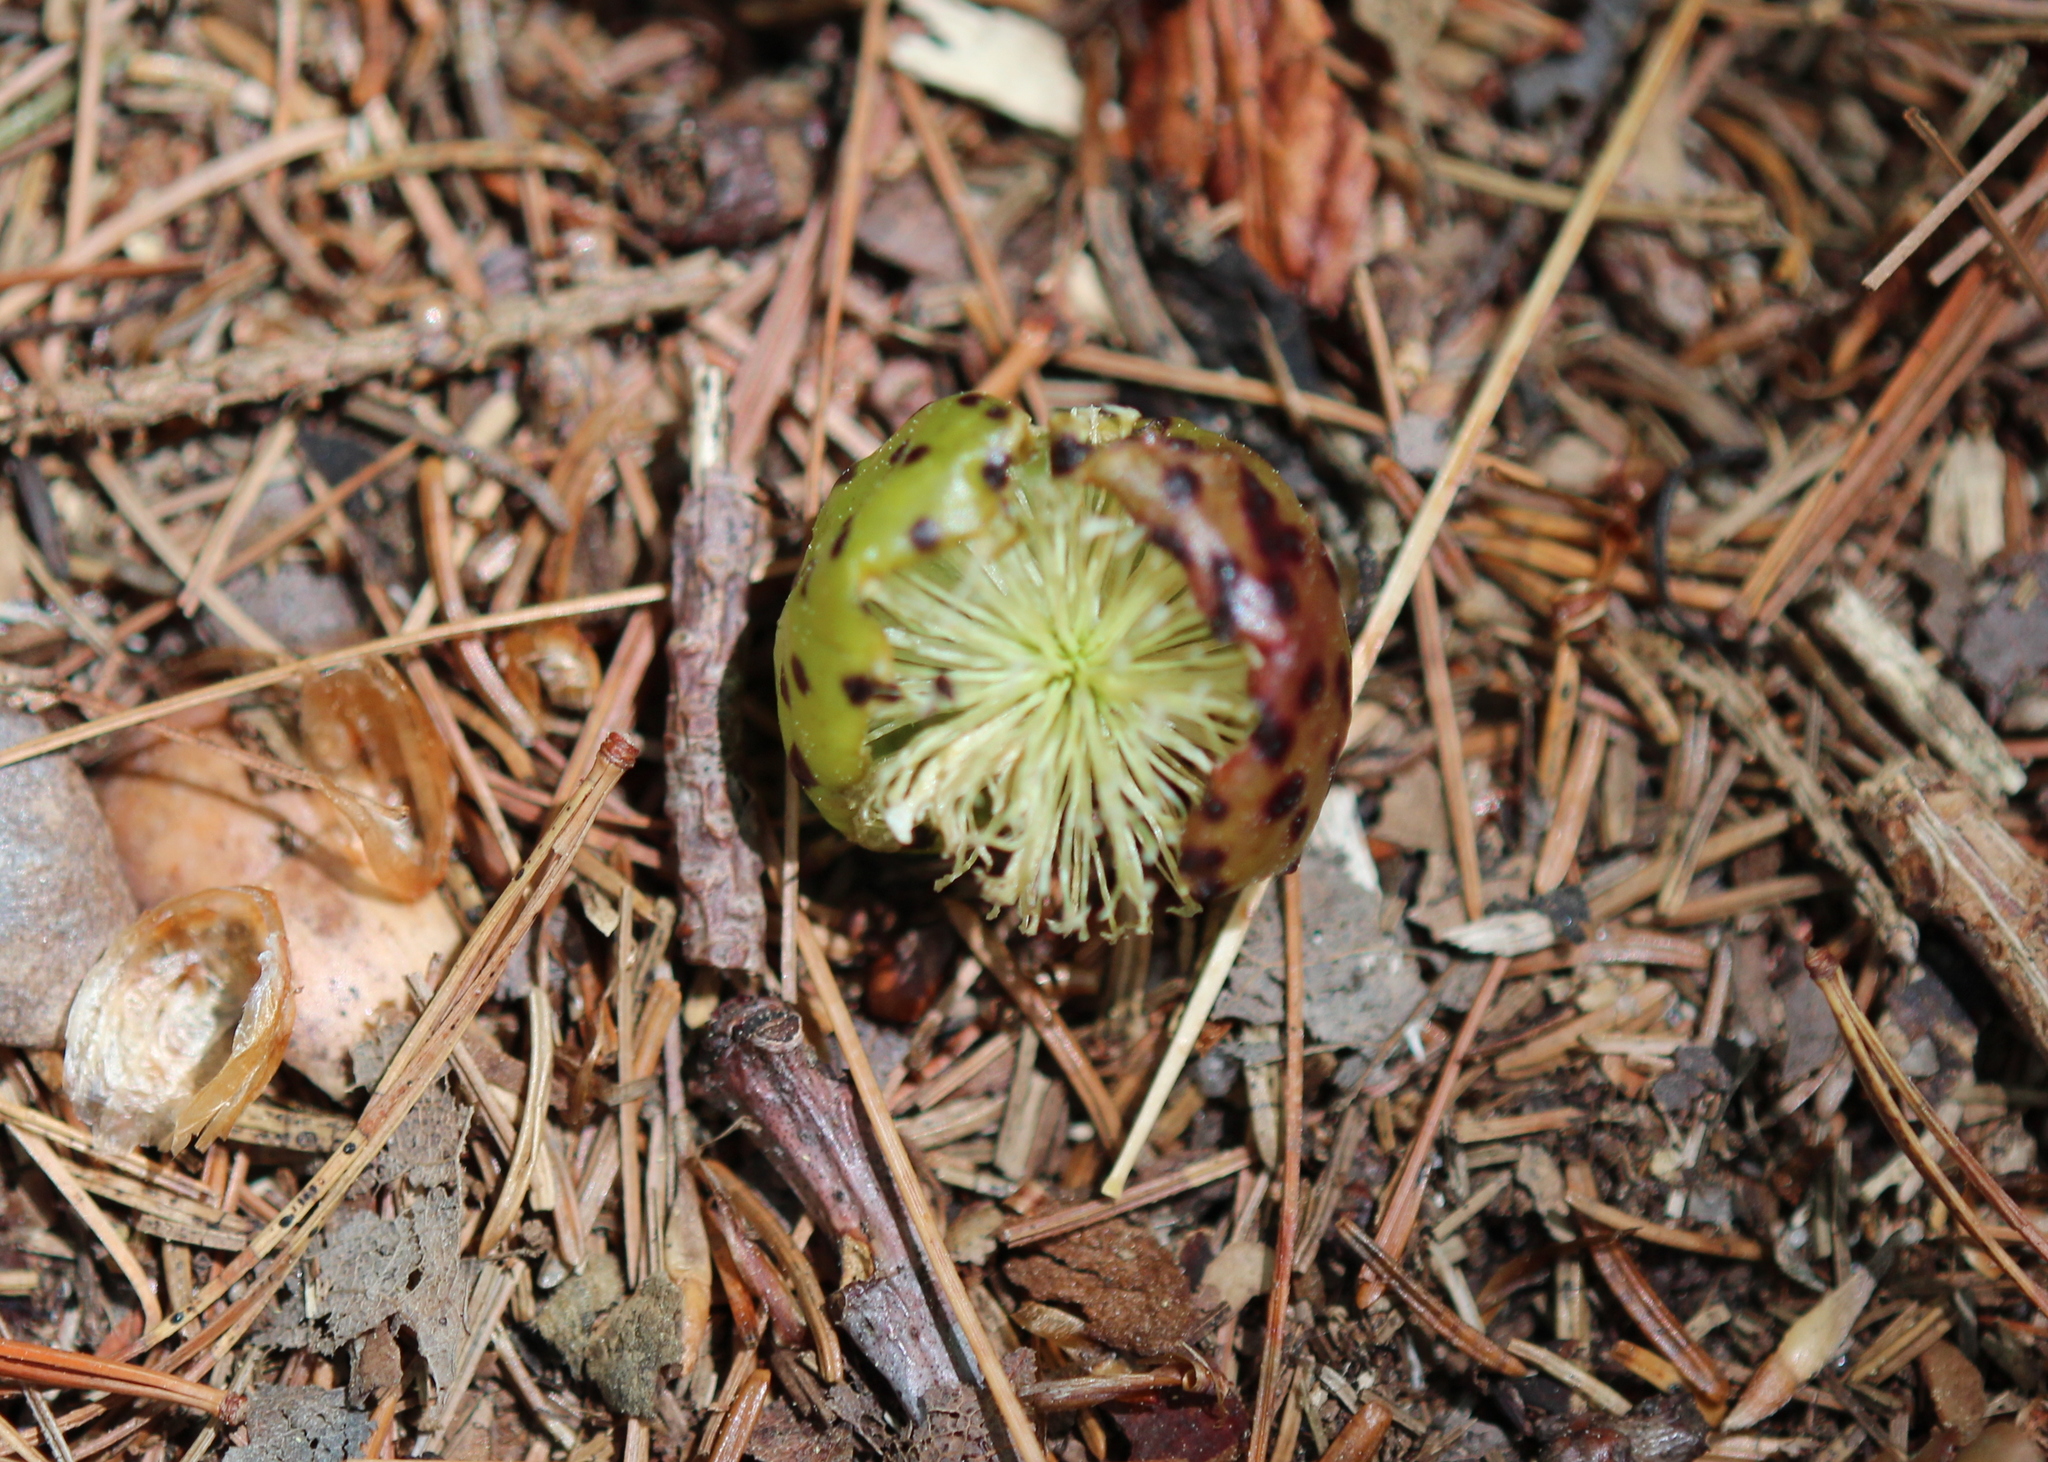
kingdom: Animalia
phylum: Arthropoda
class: Insecta
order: Hymenoptera
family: Cynipidae
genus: Amphibolips
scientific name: Amphibolips
